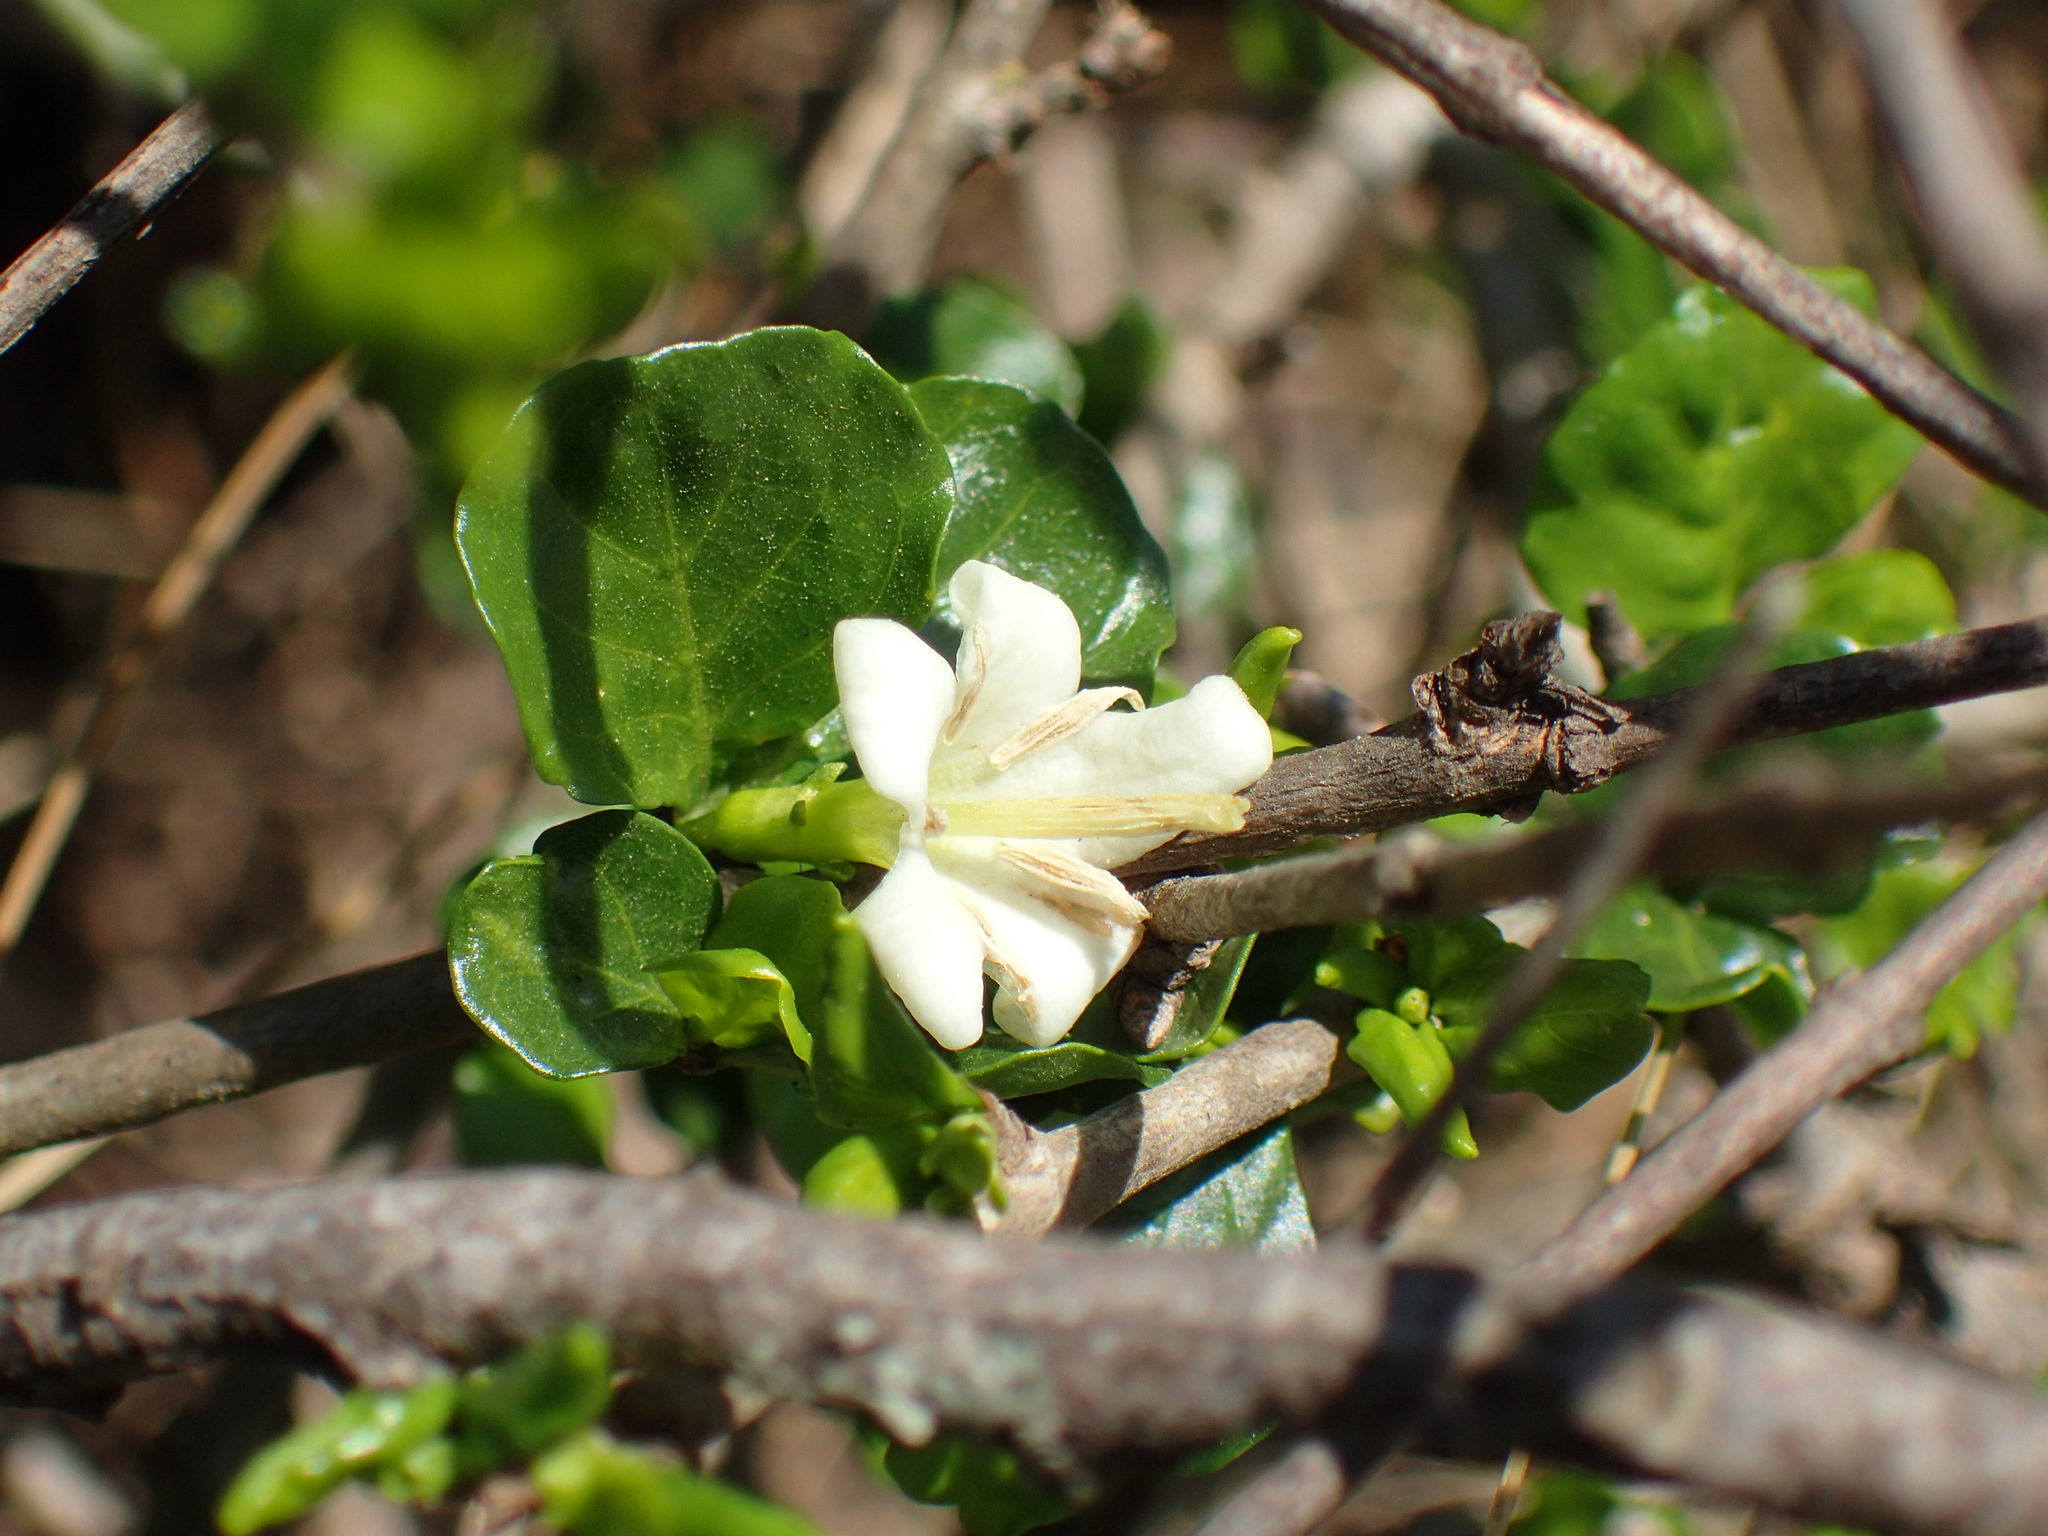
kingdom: Plantae
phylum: Tracheophyta
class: Magnoliopsida
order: Gentianales
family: Rubiaceae
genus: Coddia
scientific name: Coddia rudis
